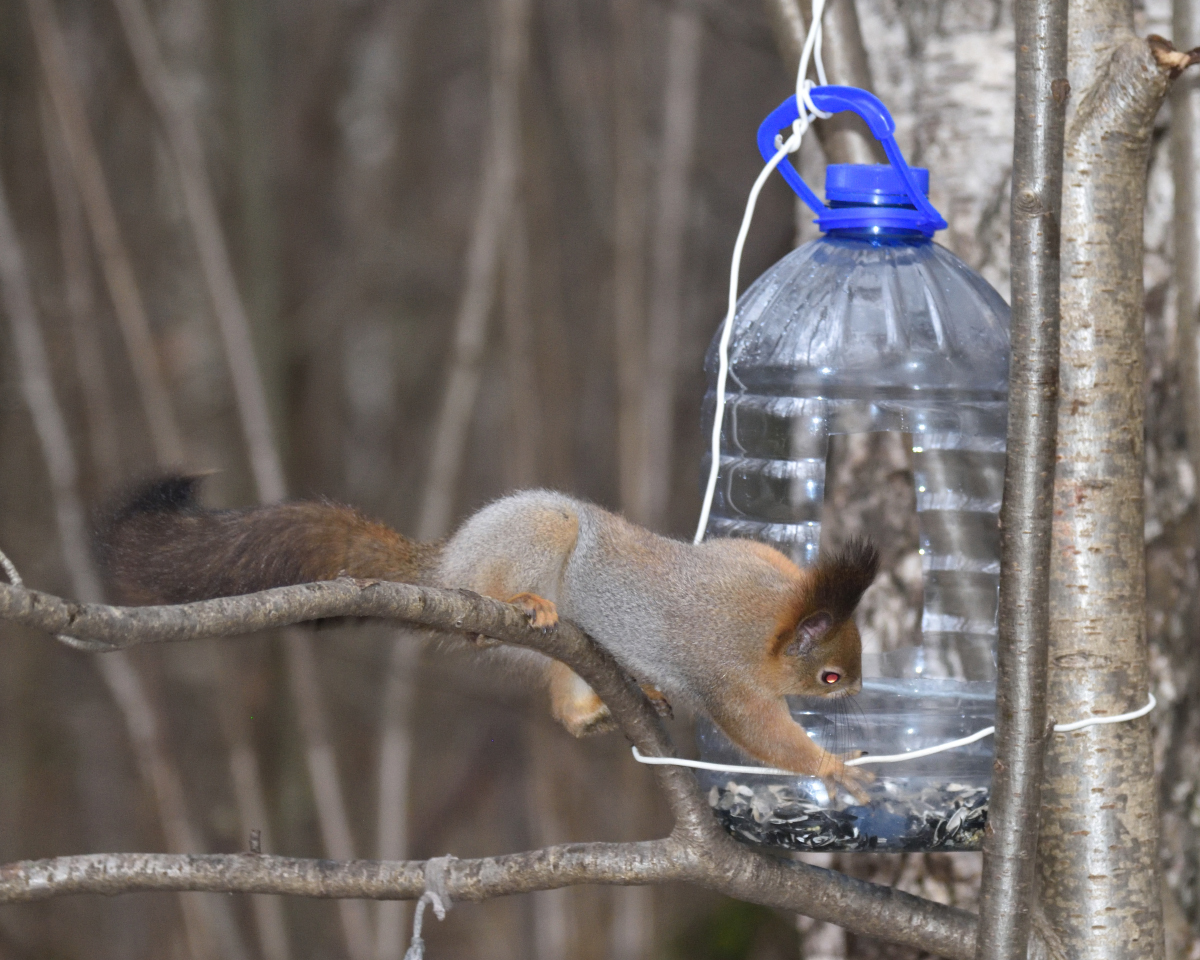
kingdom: Animalia
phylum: Chordata
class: Mammalia
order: Rodentia
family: Sciuridae
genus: Sciurus
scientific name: Sciurus vulgaris
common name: Eurasian red squirrel
